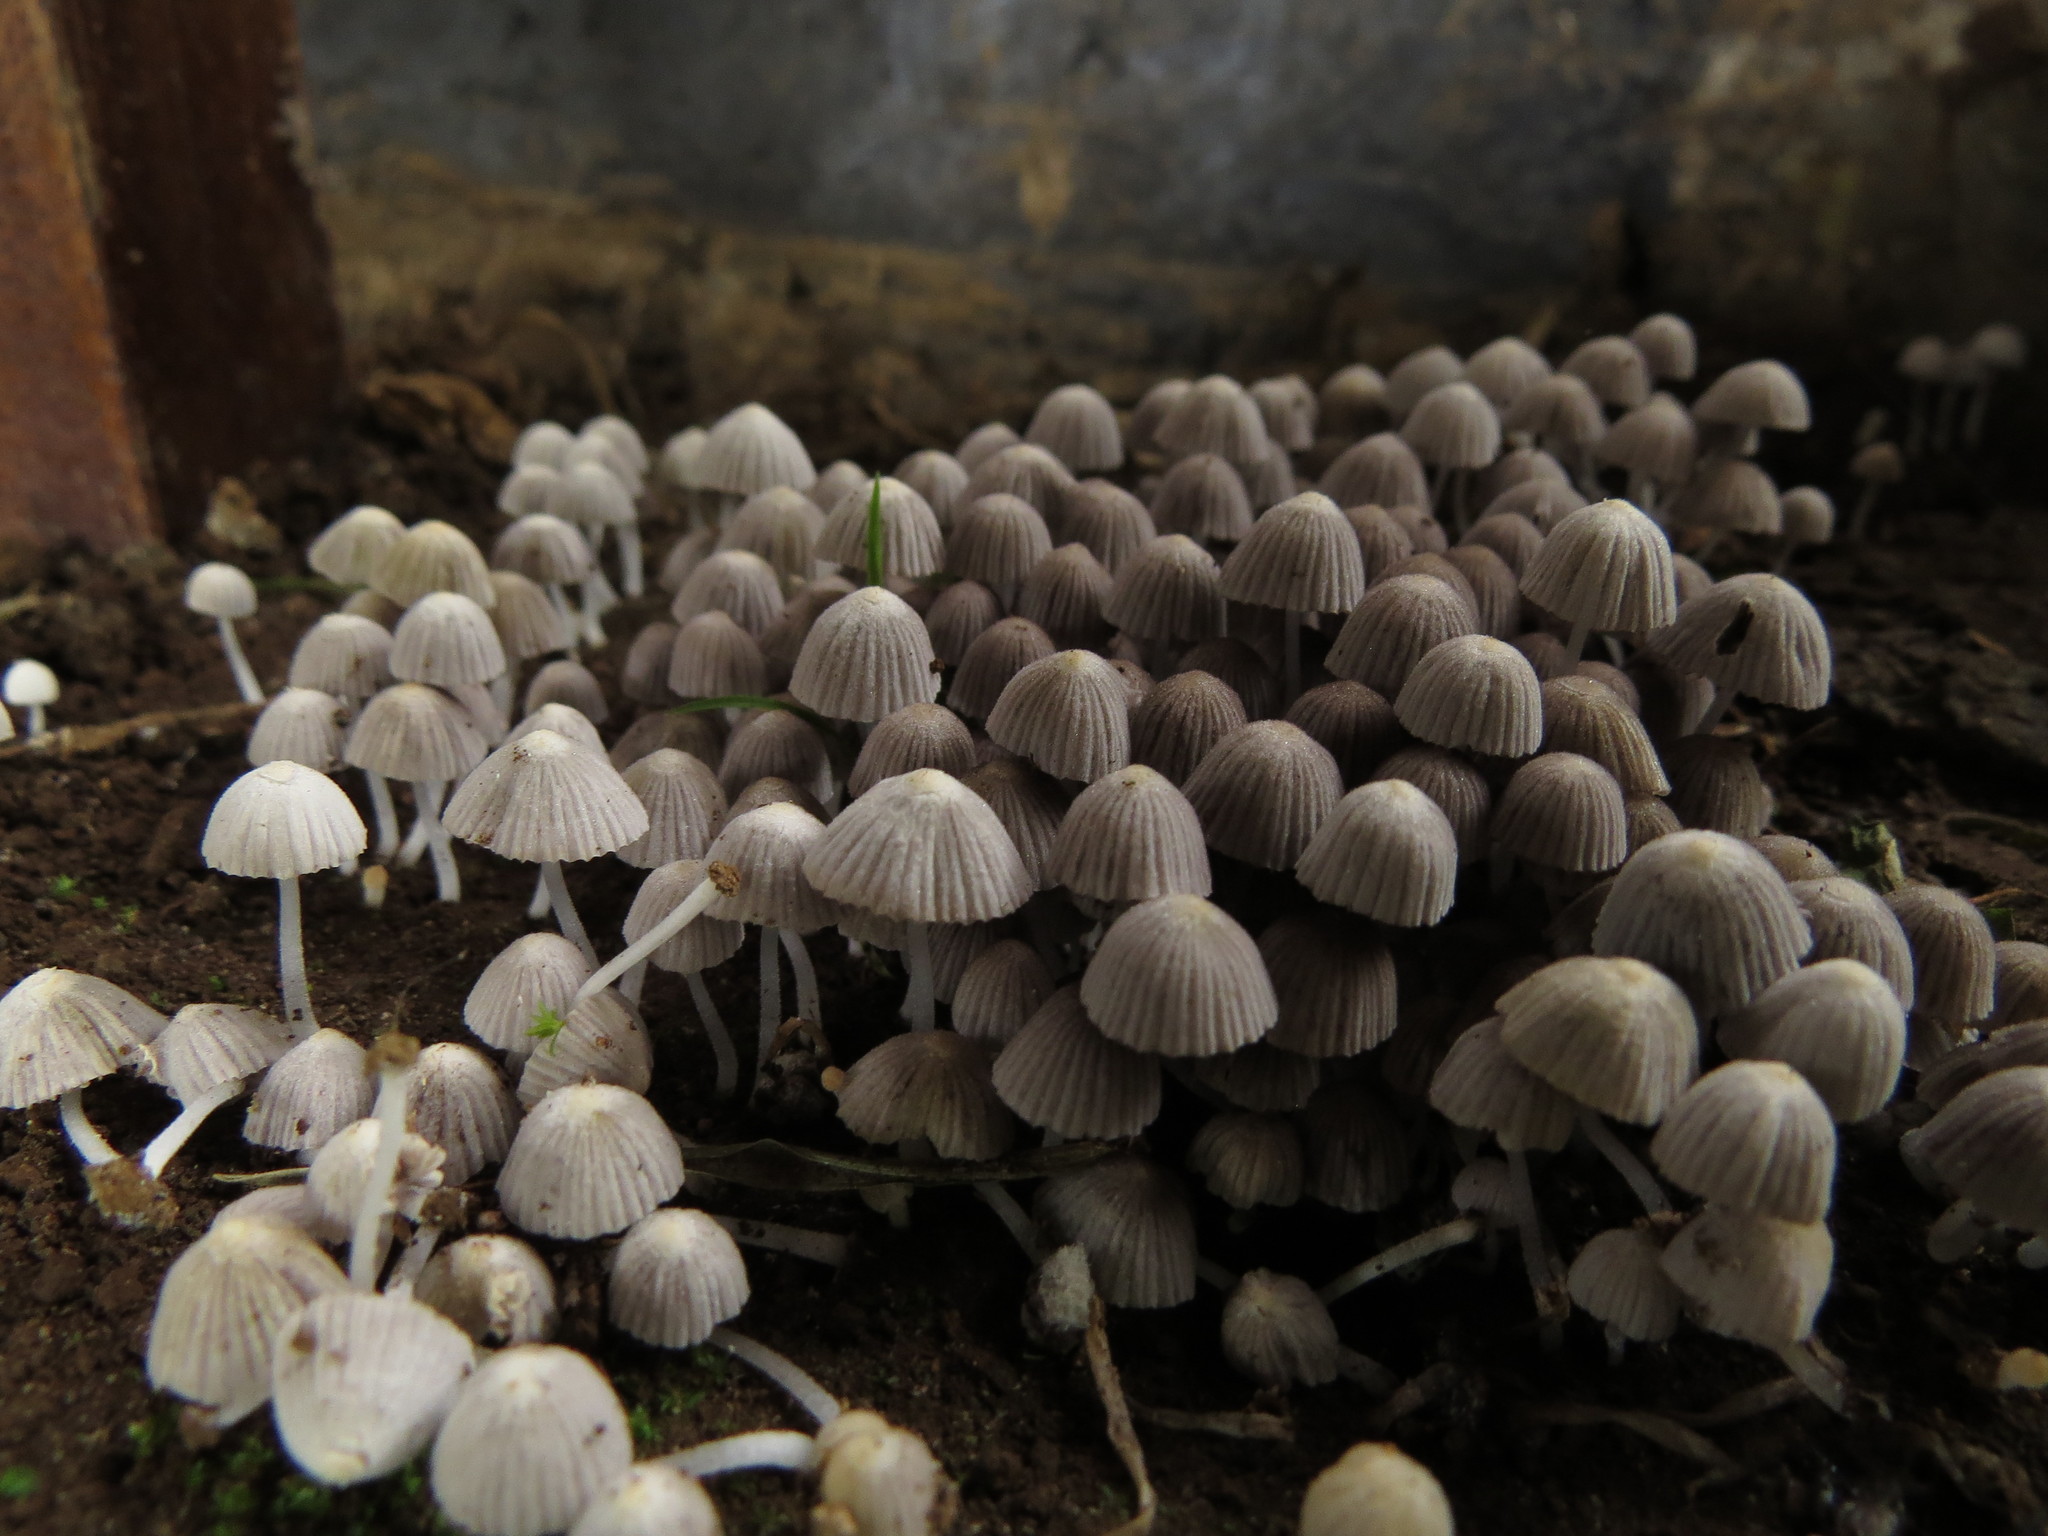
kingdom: Fungi
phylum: Basidiomycota
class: Agaricomycetes
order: Agaricales
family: Psathyrellaceae
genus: Coprinellus
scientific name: Coprinellus disseminatus
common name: Fairies' bonnets
